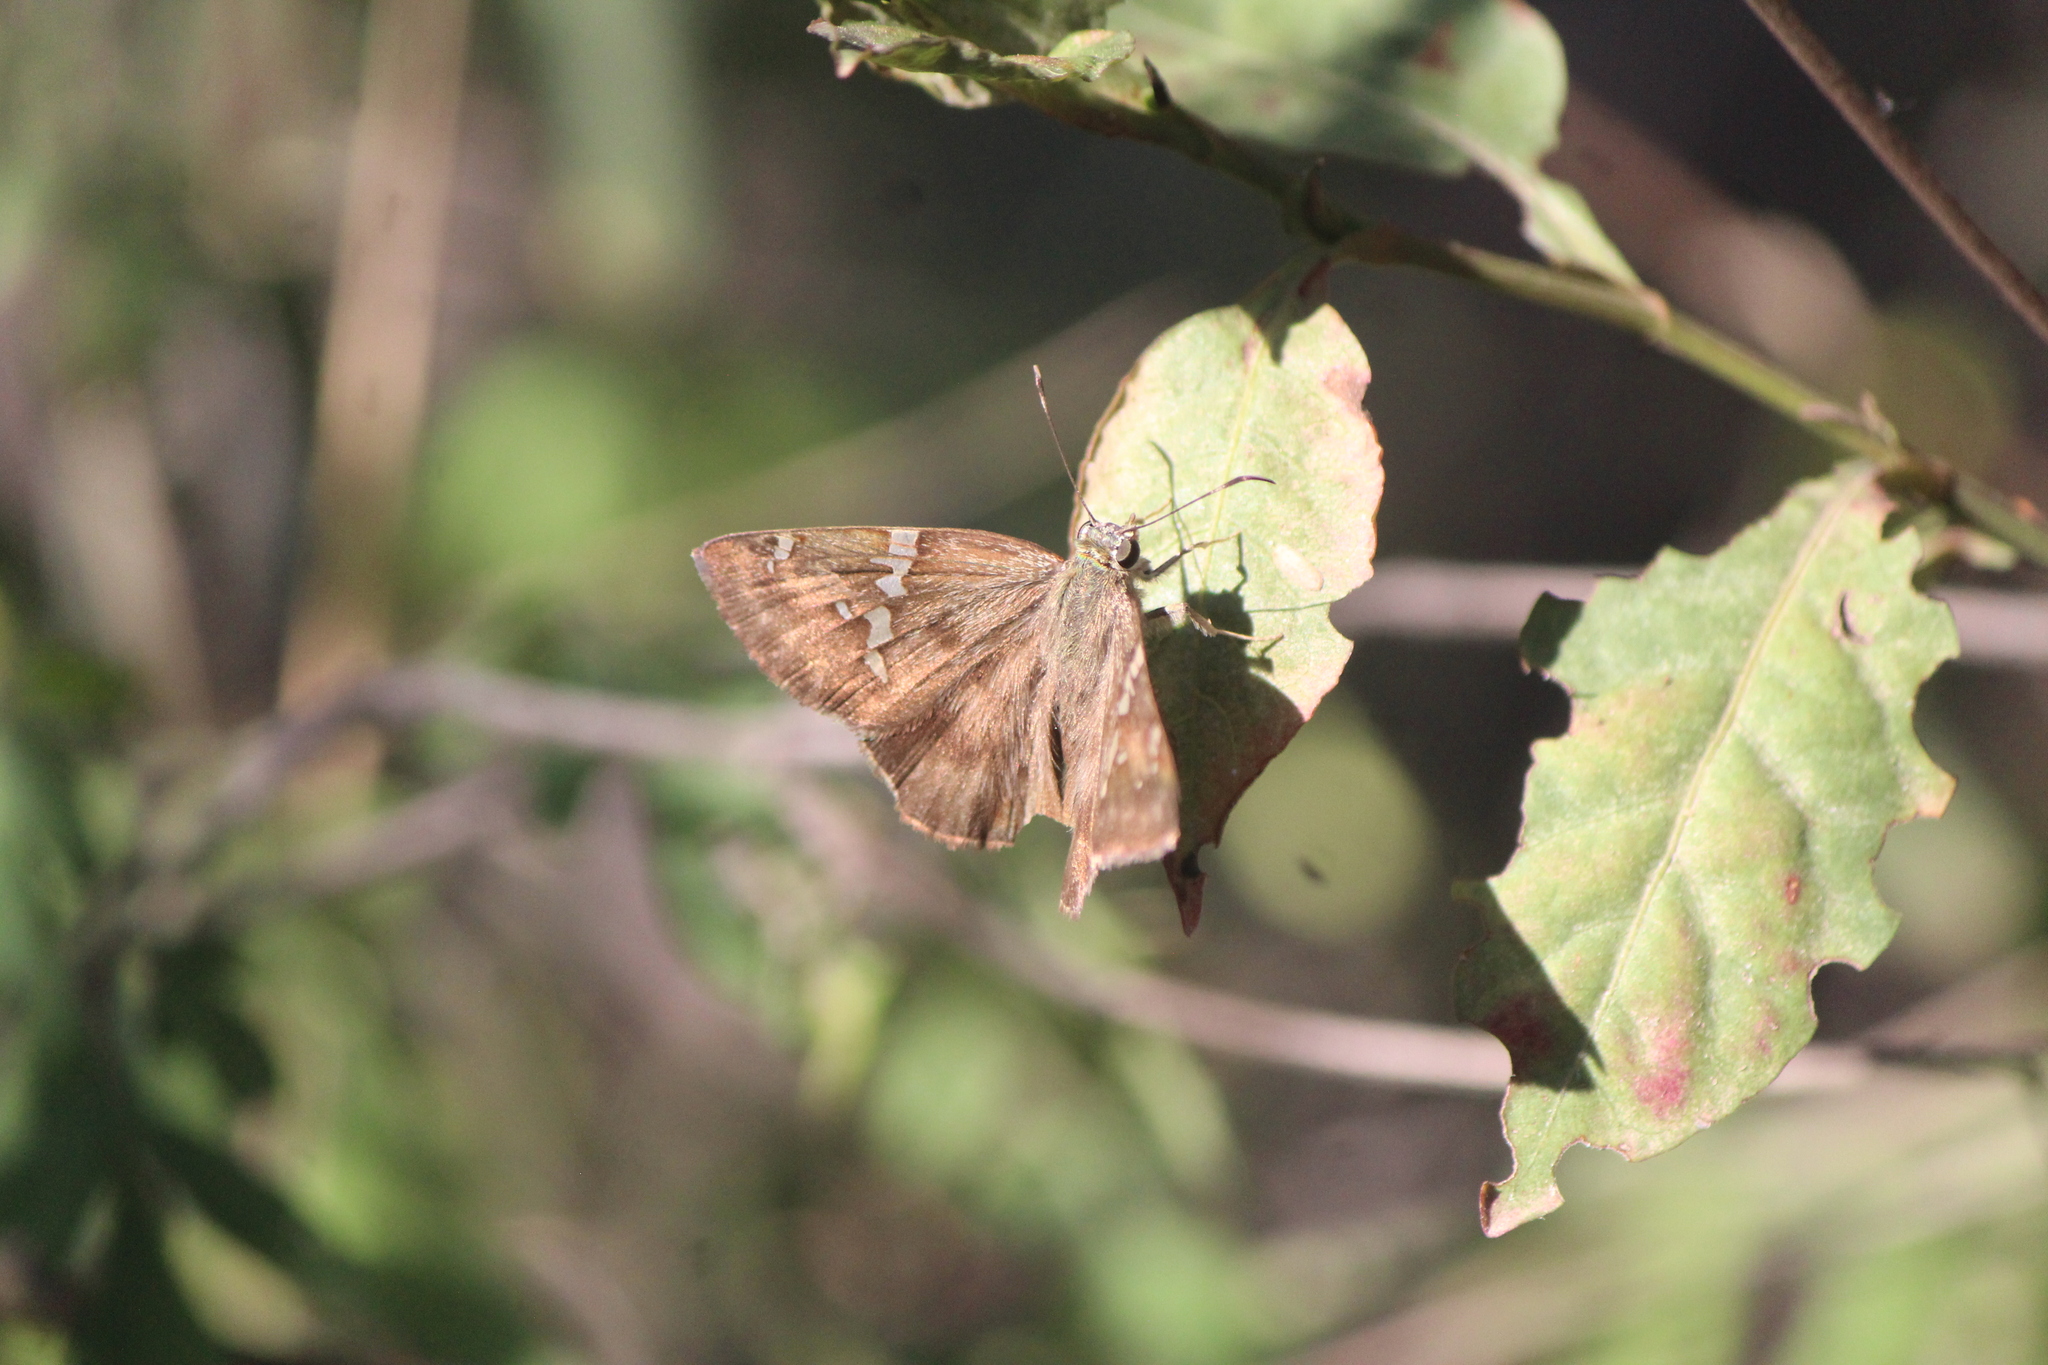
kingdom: Animalia
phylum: Arthropoda
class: Insecta
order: Lepidoptera
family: Hesperiidae
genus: Autochton
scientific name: Autochton potrillo
